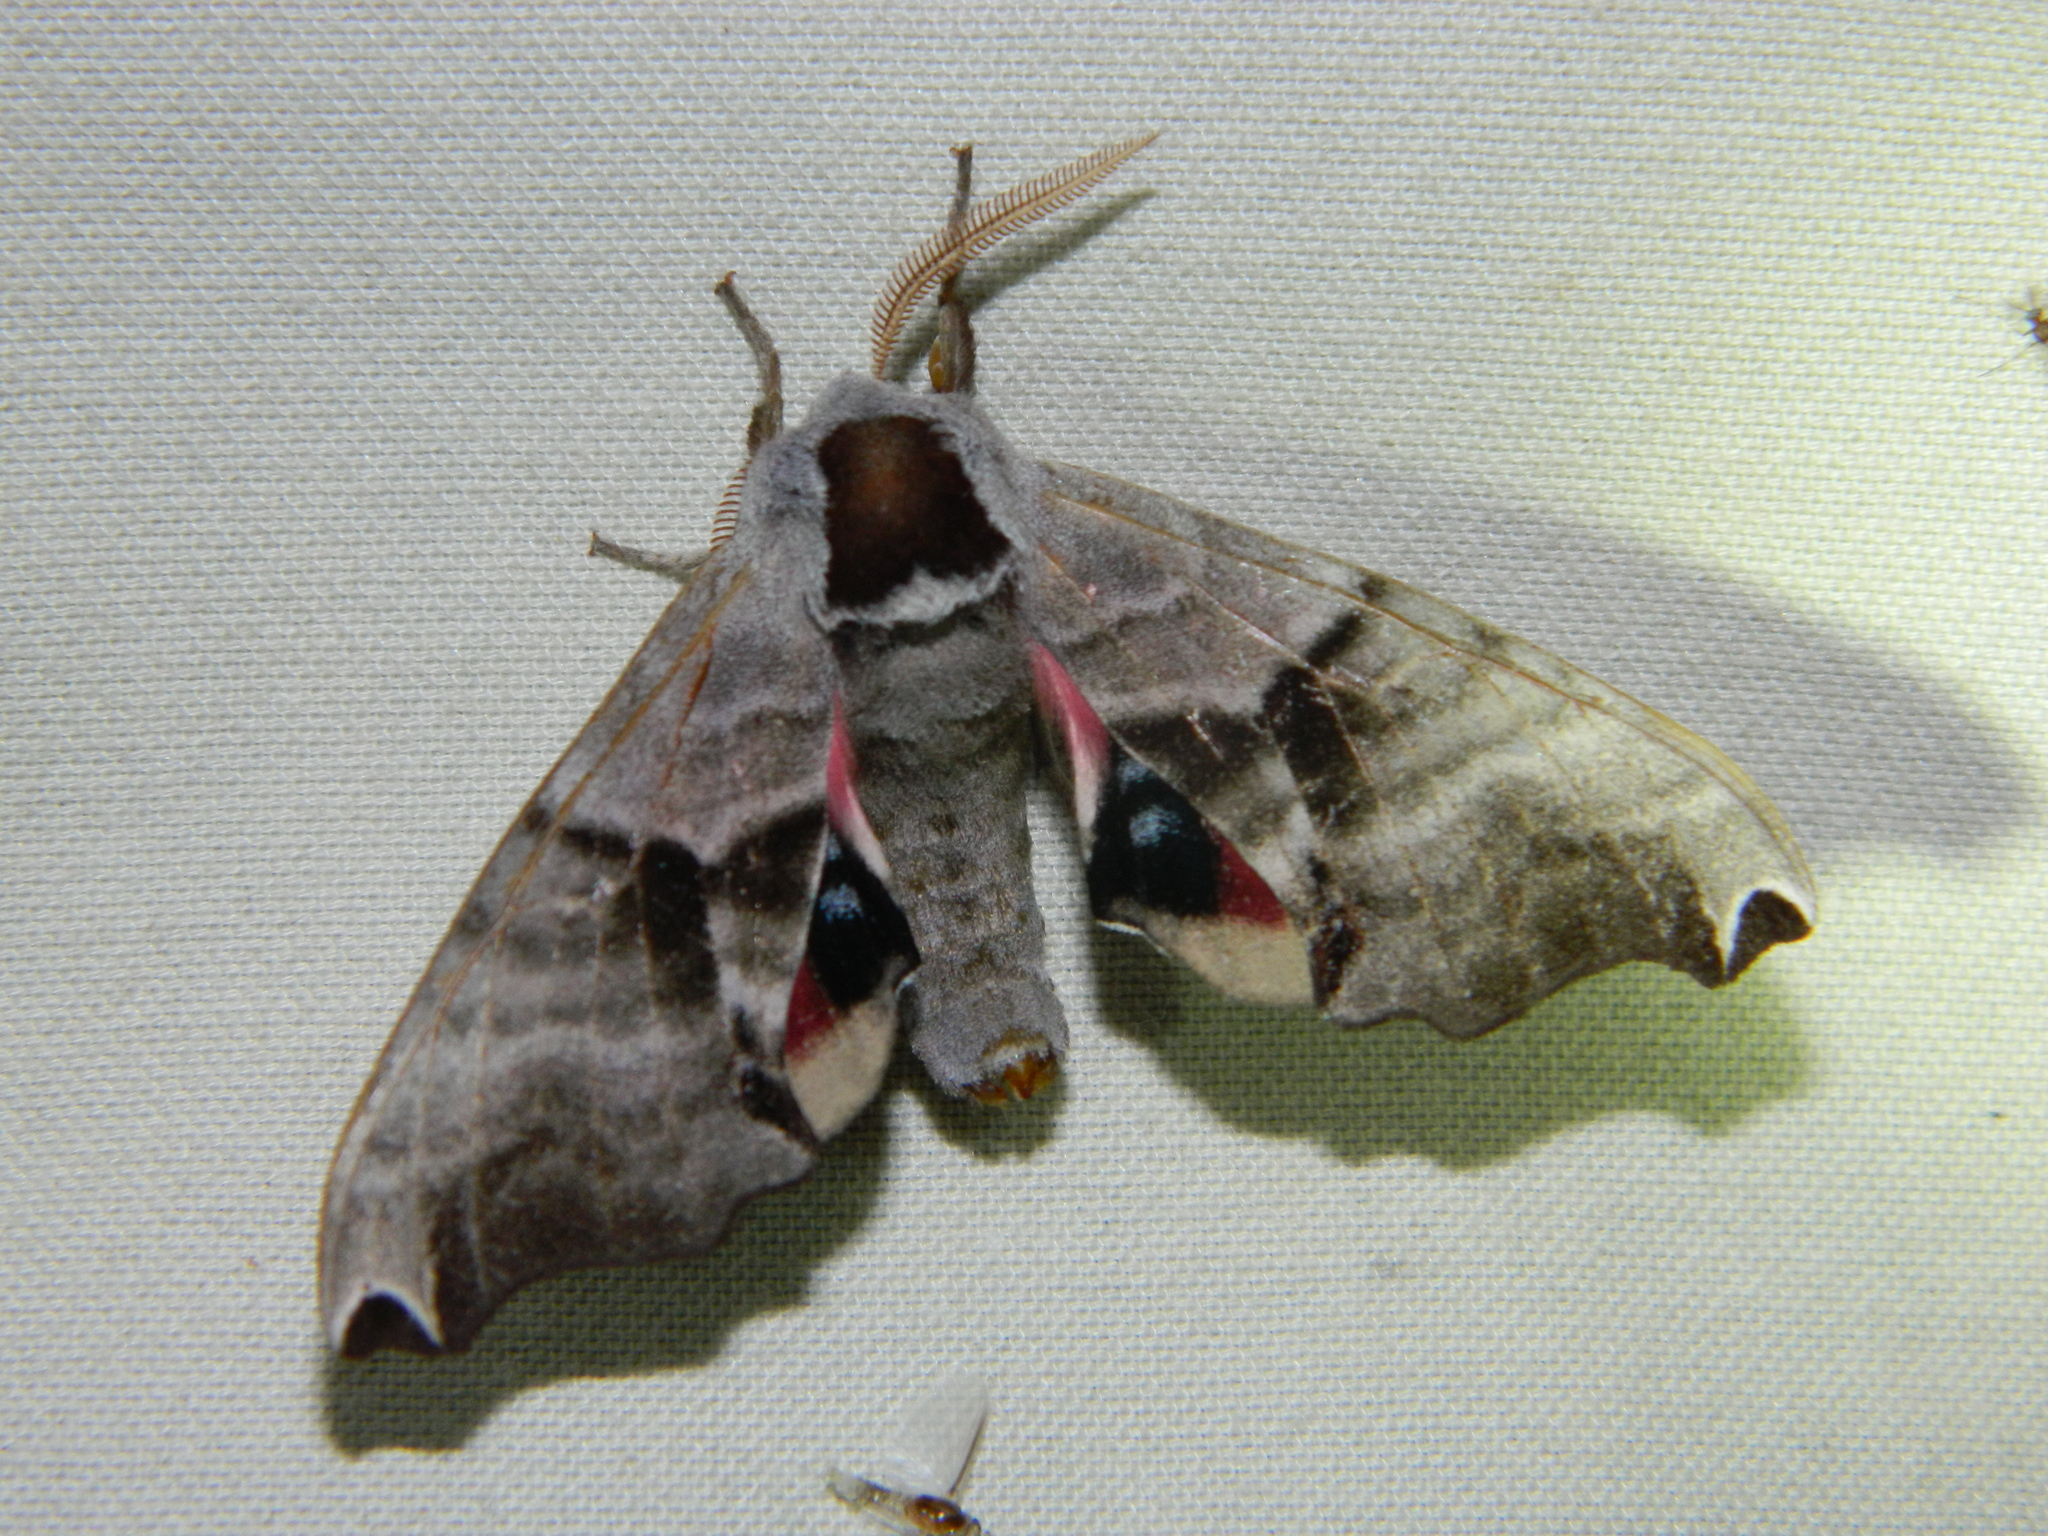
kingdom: Animalia
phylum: Arthropoda
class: Insecta
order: Lepidoptera
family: Sphingidae
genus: Smerinthus
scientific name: Smerinthus jamaicensis
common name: Twin spotted sphinx
